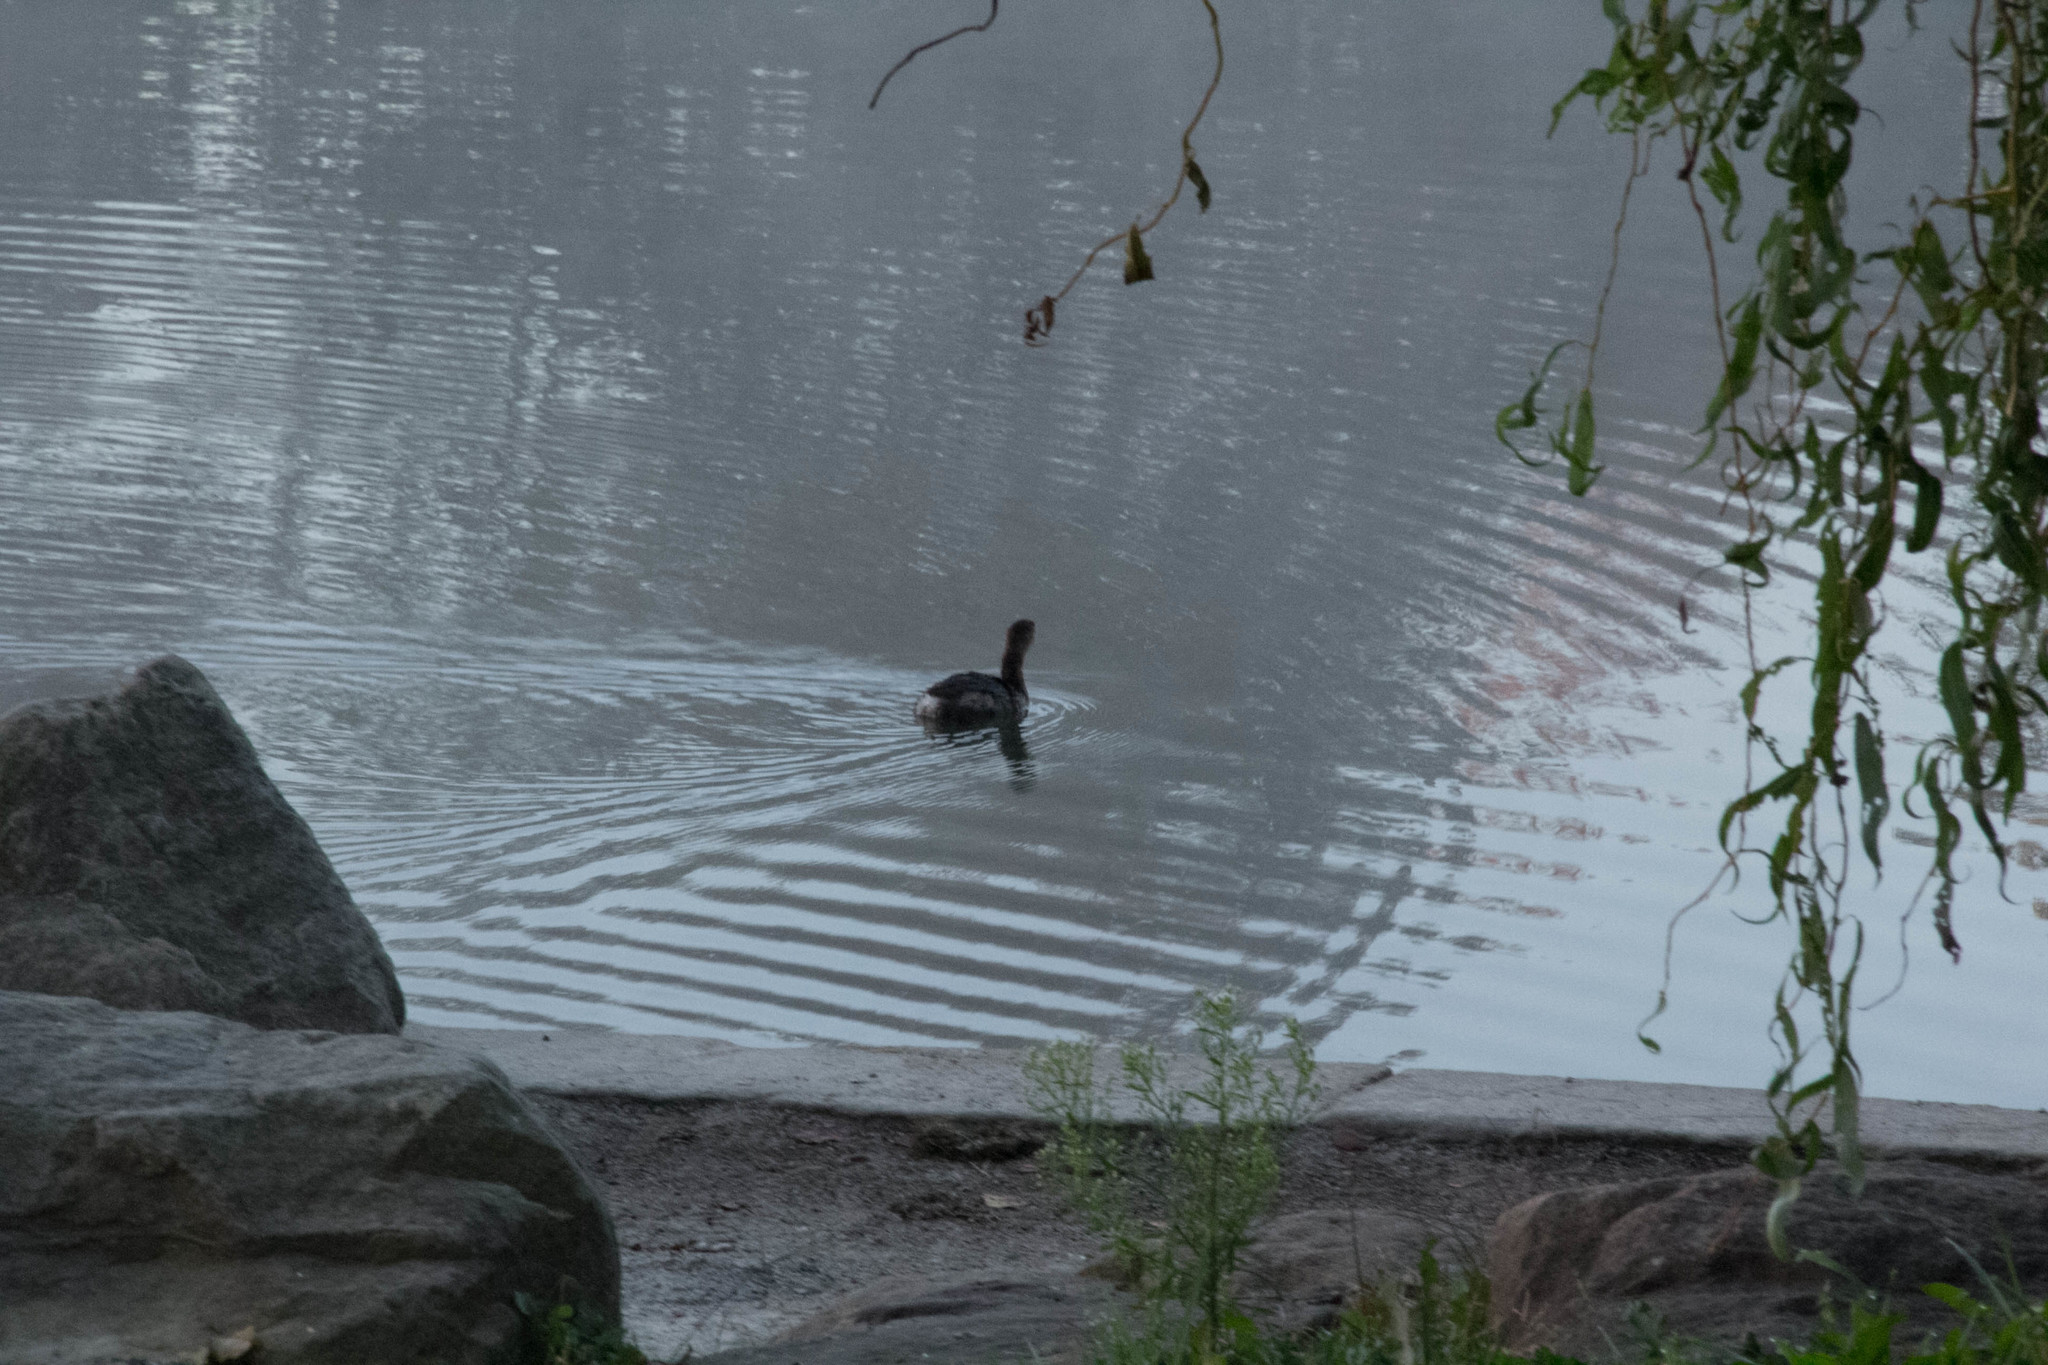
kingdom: Animalia
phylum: Chordata
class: Aves
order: Podicipediformes
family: Podicipedidae
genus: Podilymbus
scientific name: Podilymbus podiceps
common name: Pied-billed grebe
